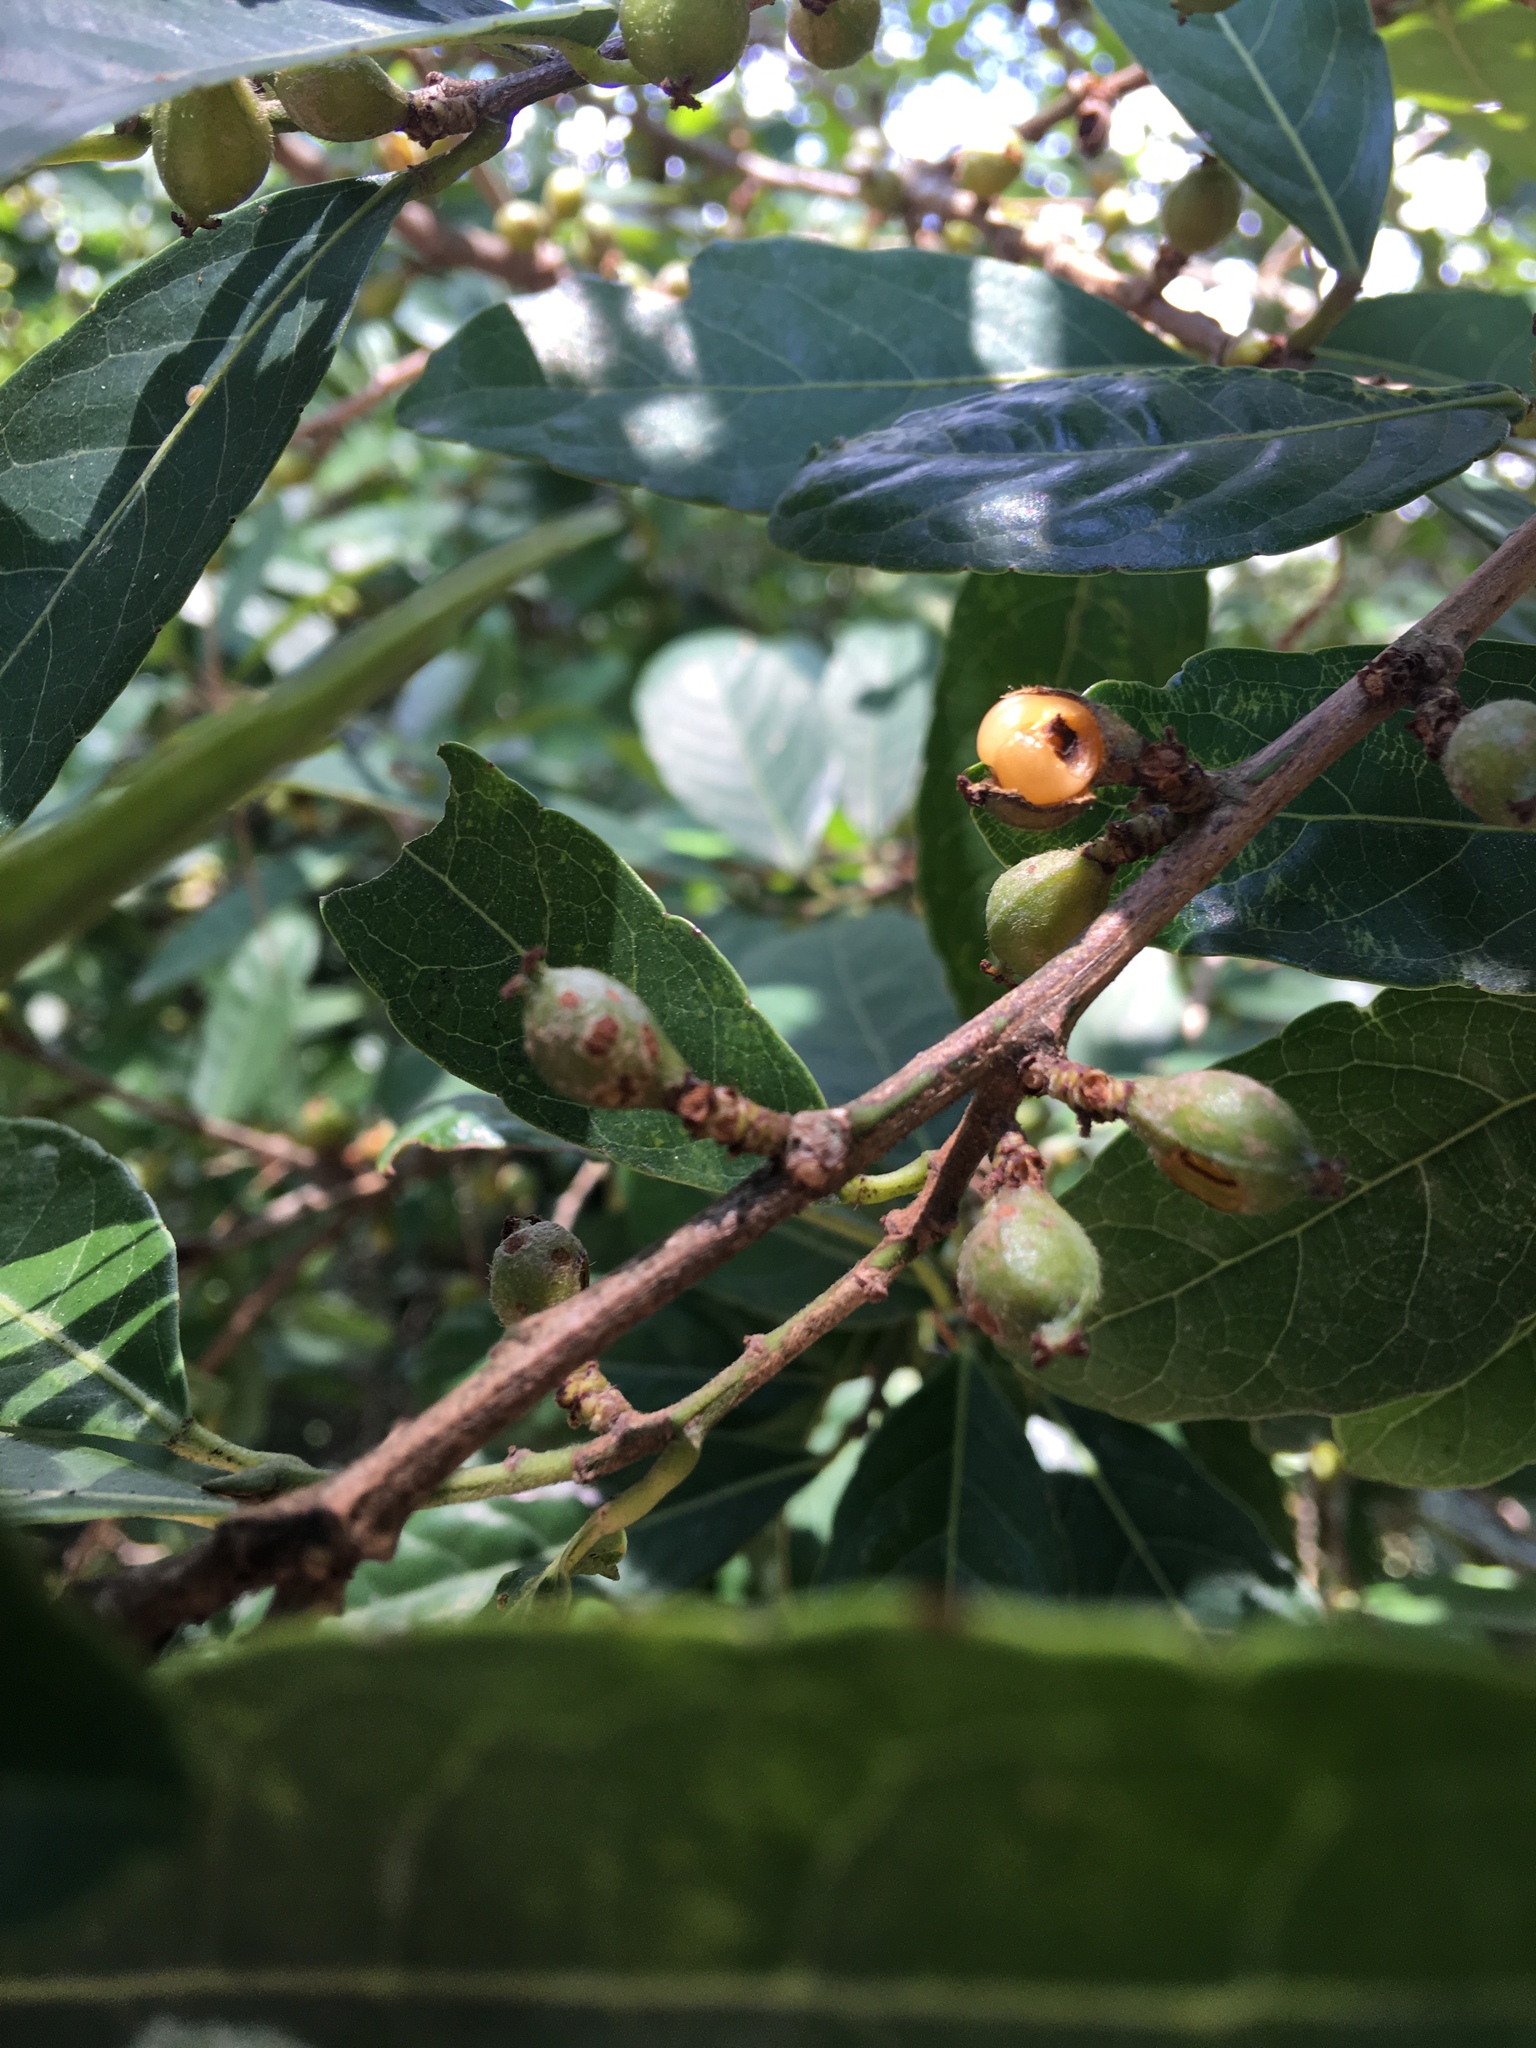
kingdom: Plantae
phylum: Tracheophyta
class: Magnoliopsida
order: Malpighiales
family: Phyllanthaceae
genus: Aporosa
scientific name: Aporosa octandra
